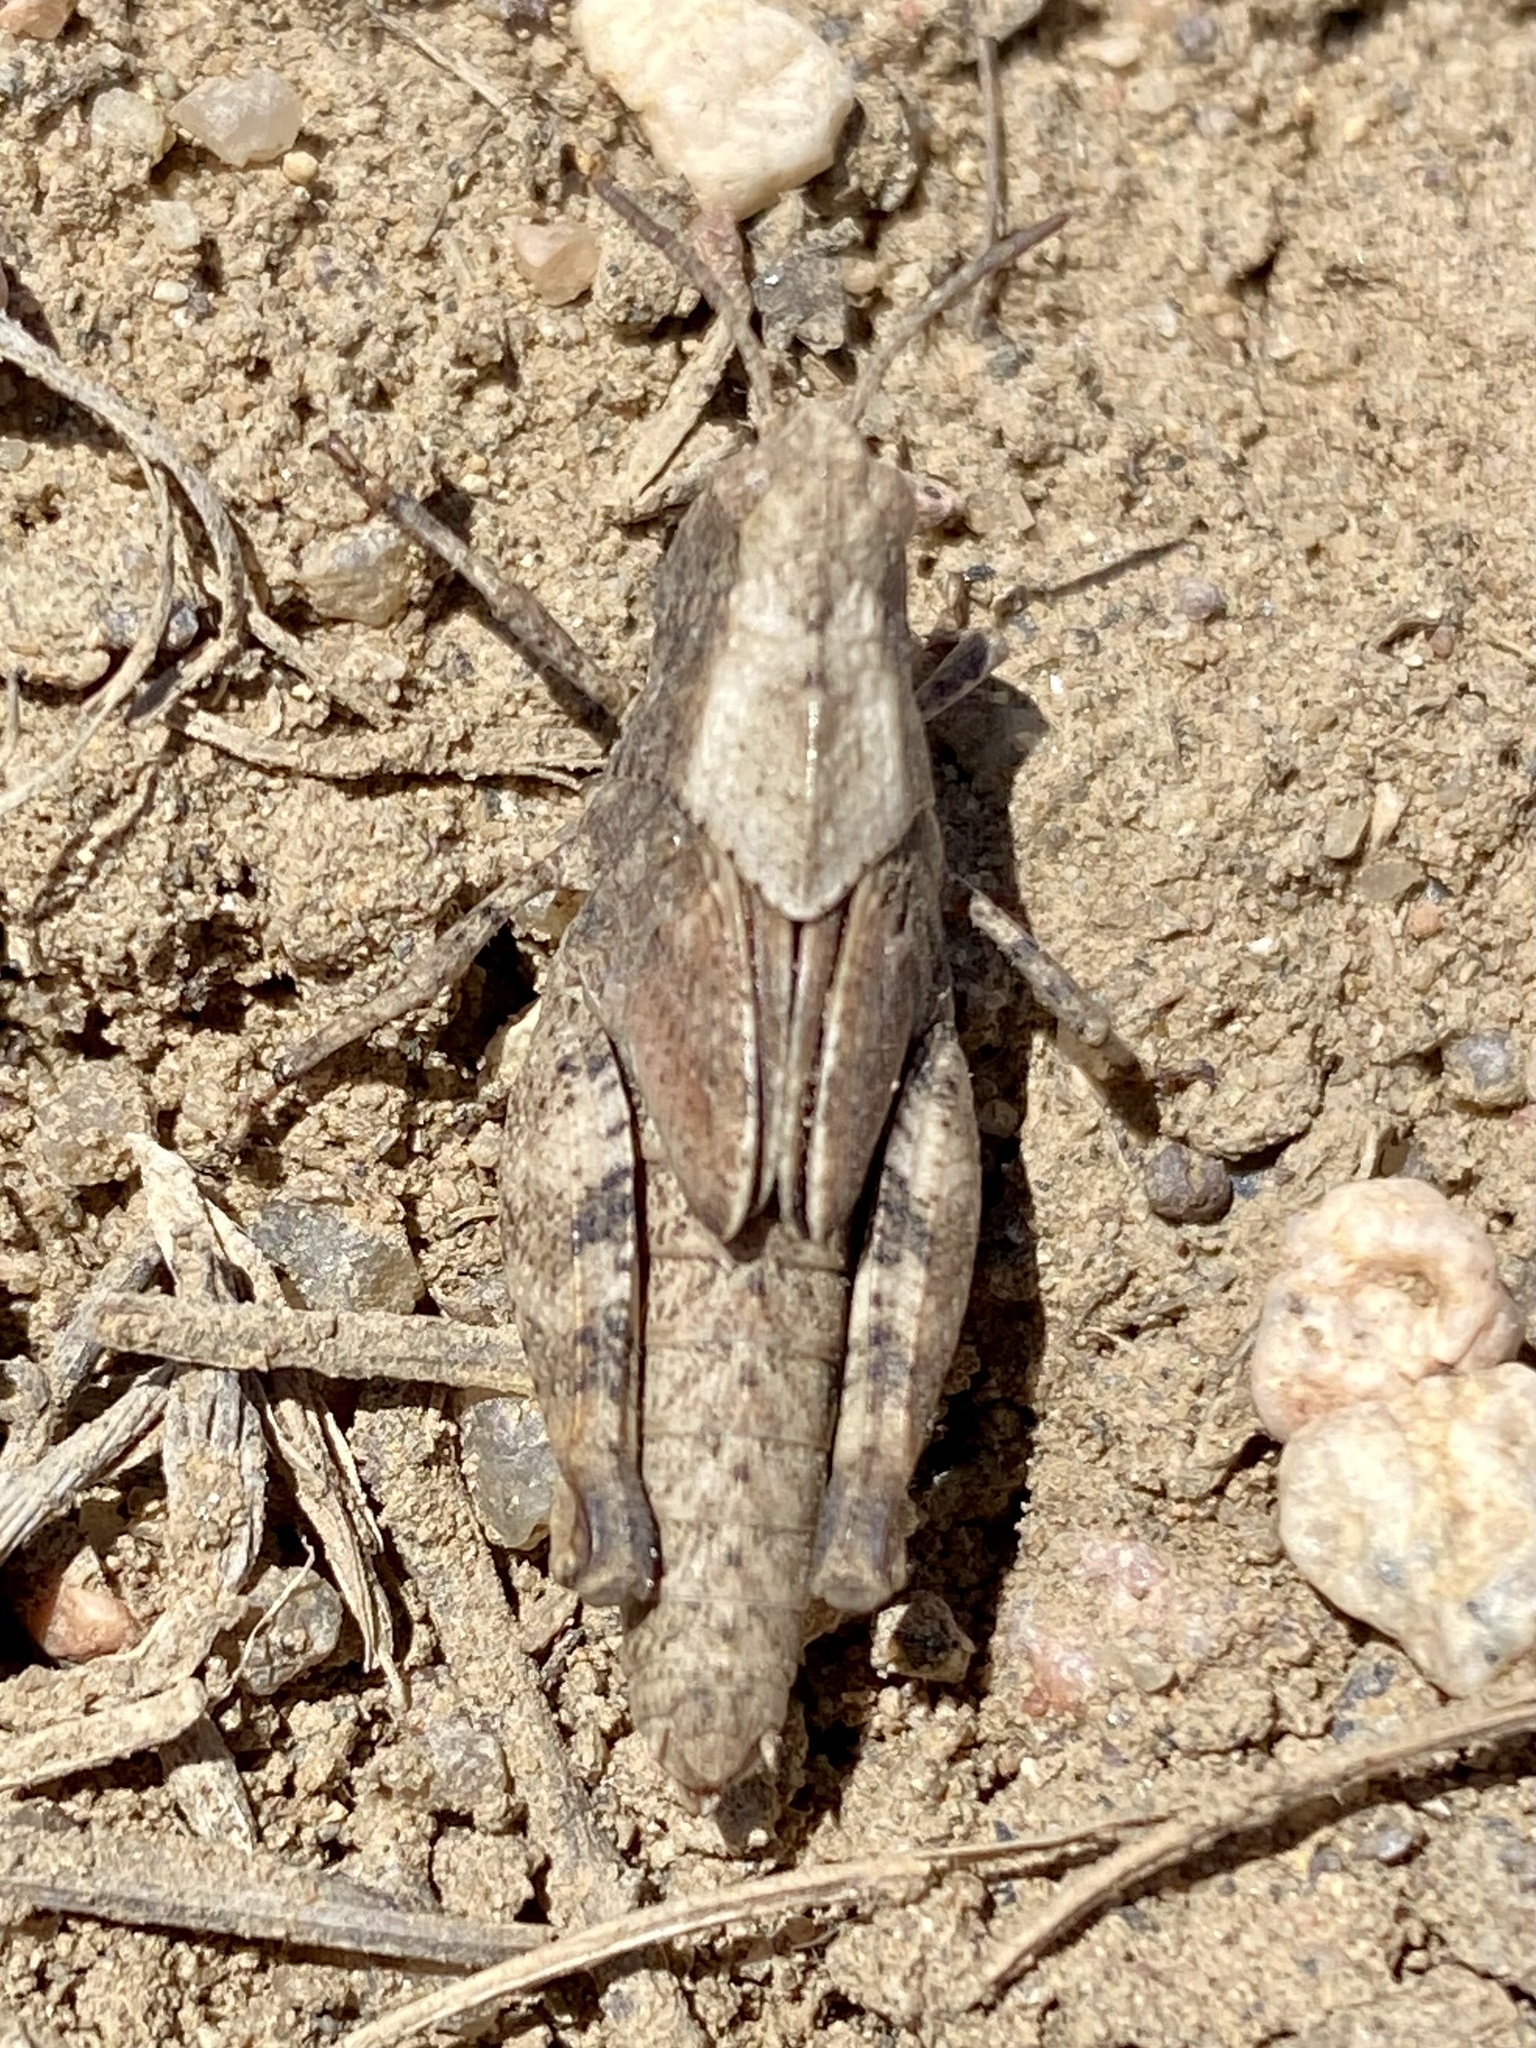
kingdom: Animalia
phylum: Arthropoda
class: Insecta
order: Orthoptera
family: Acrididae
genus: Arphia
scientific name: Arphia conspersa
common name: Speckle-winged rangeland grasshopper
